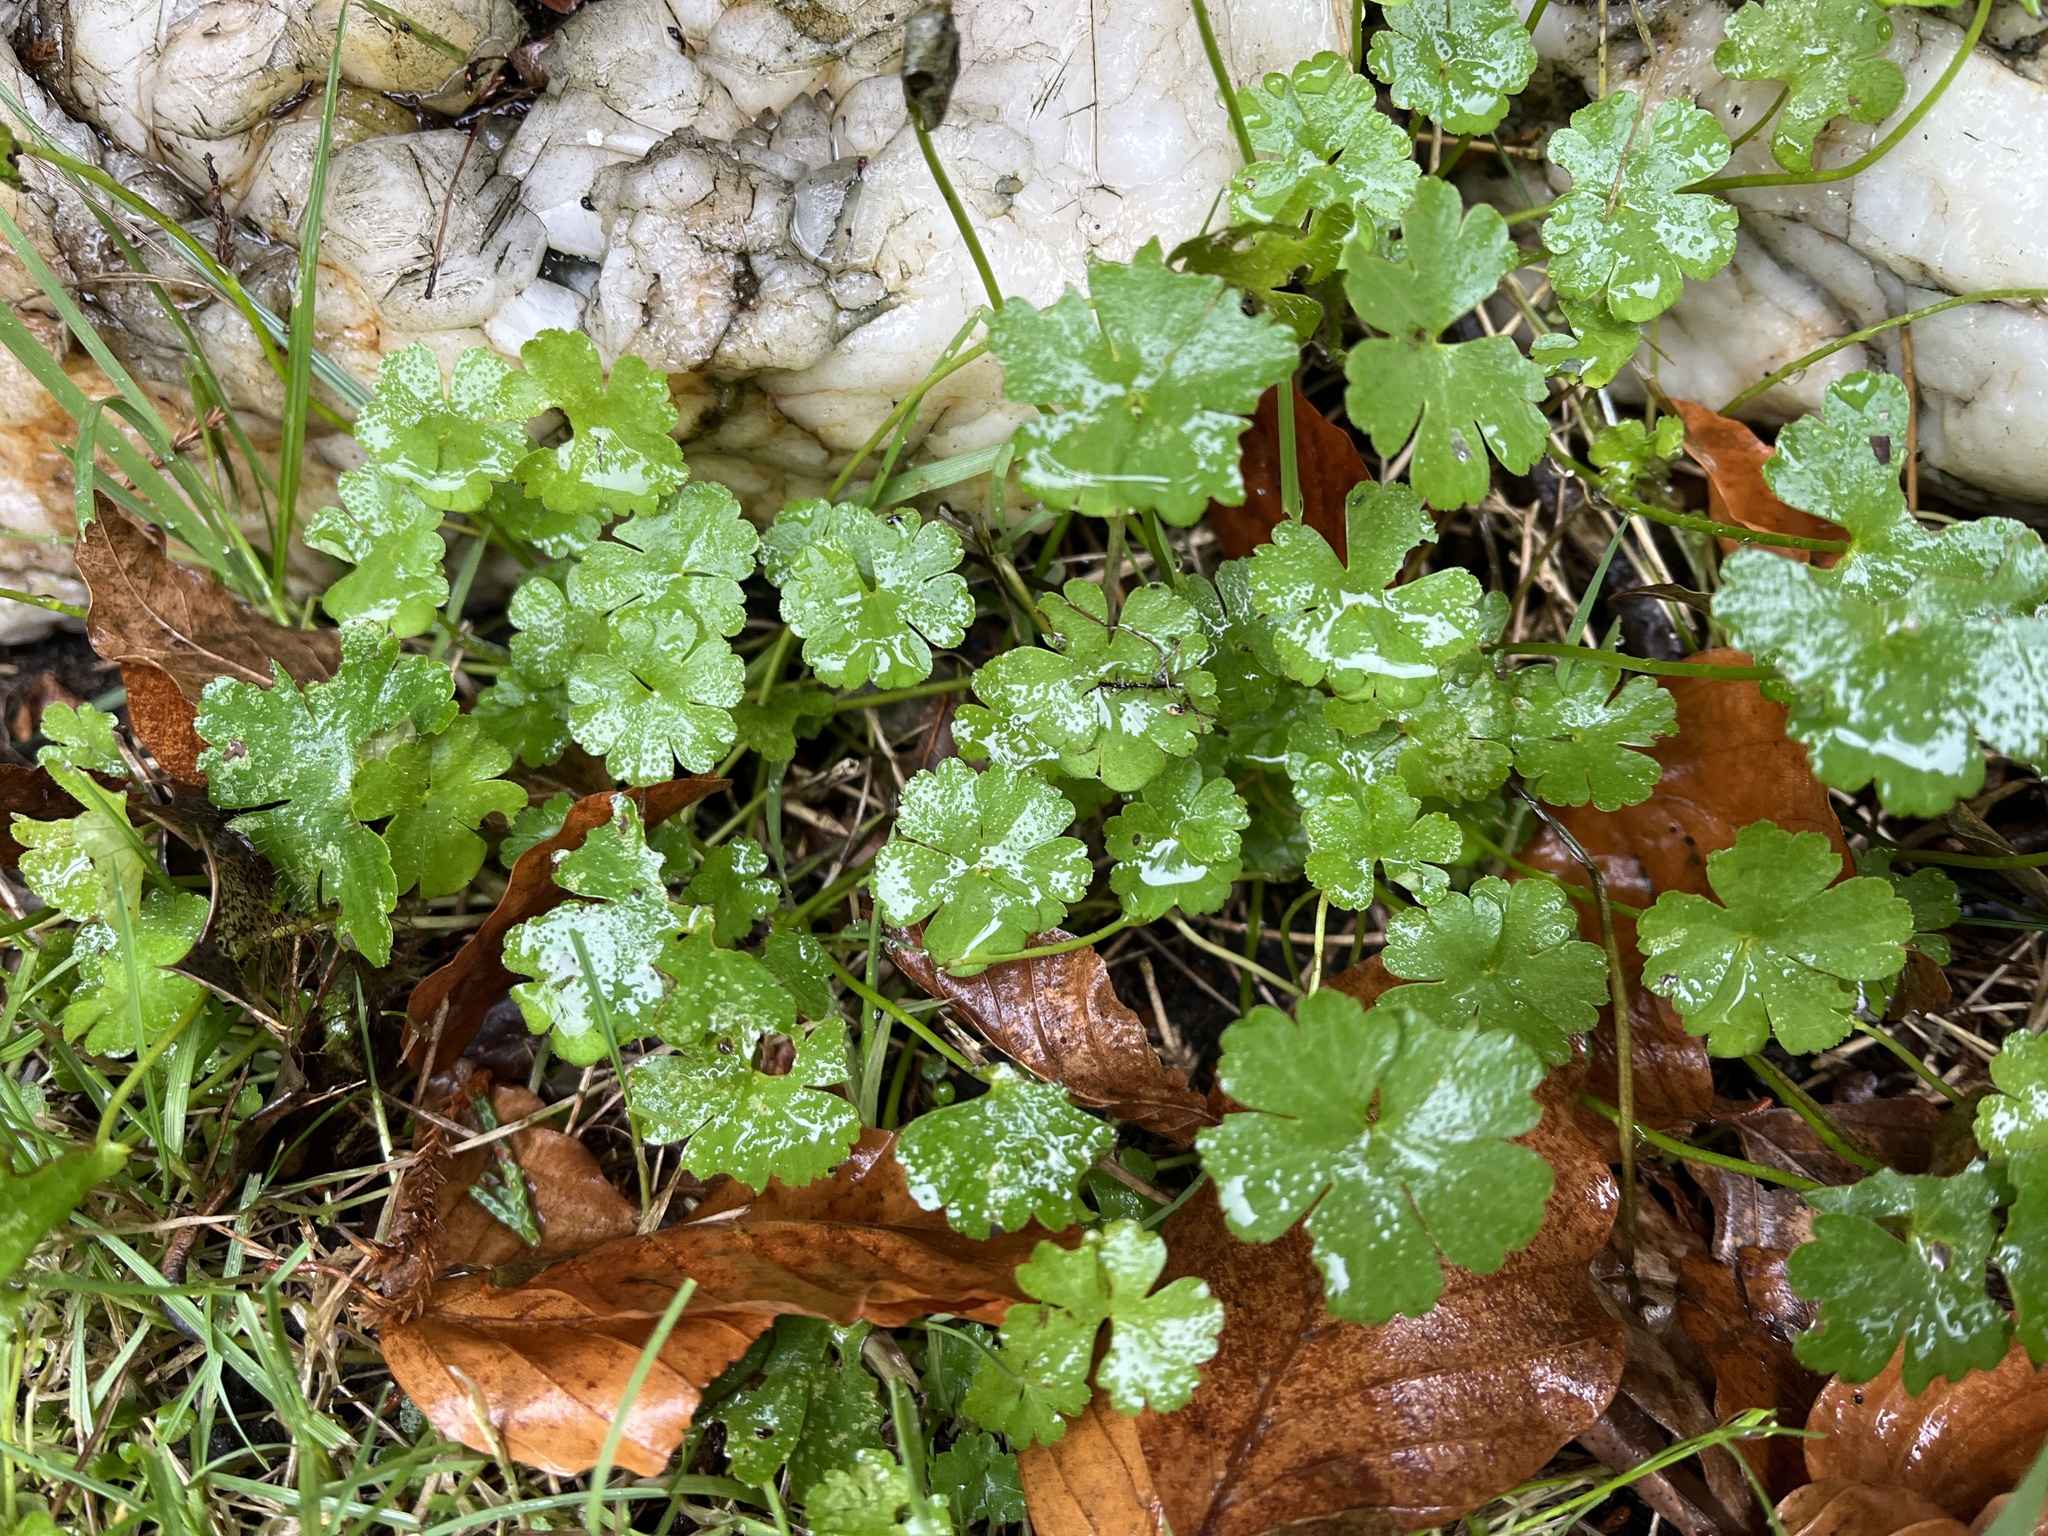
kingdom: Plantae
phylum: Tracheophyta
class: Magnoliopsida
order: Geraniales
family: Geraniaceae
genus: Geranium
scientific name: Geranium lucidum
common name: Shining crane's-bill
